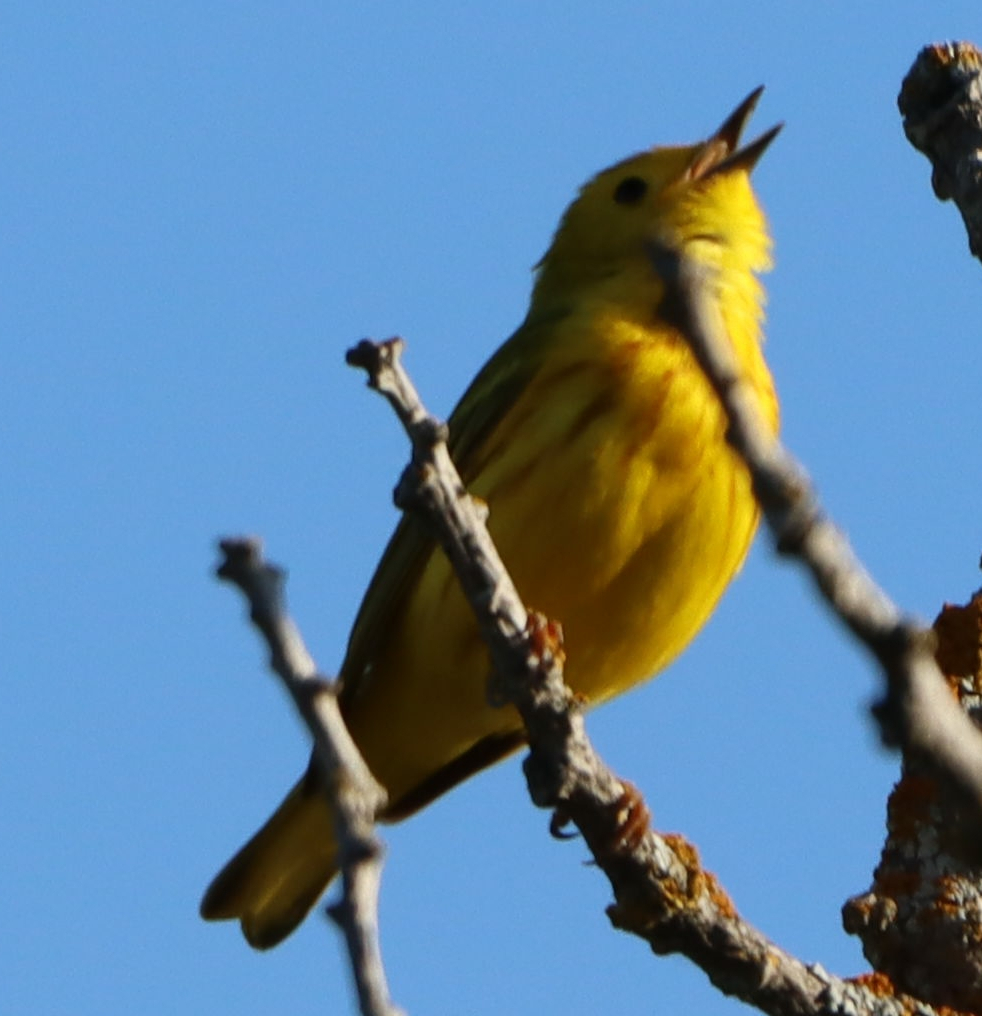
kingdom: Animalia
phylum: Chordata
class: Aves
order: Passeriformes
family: Parulidae
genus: Setophaga
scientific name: Setophaga petechia
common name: Yellow warbler
